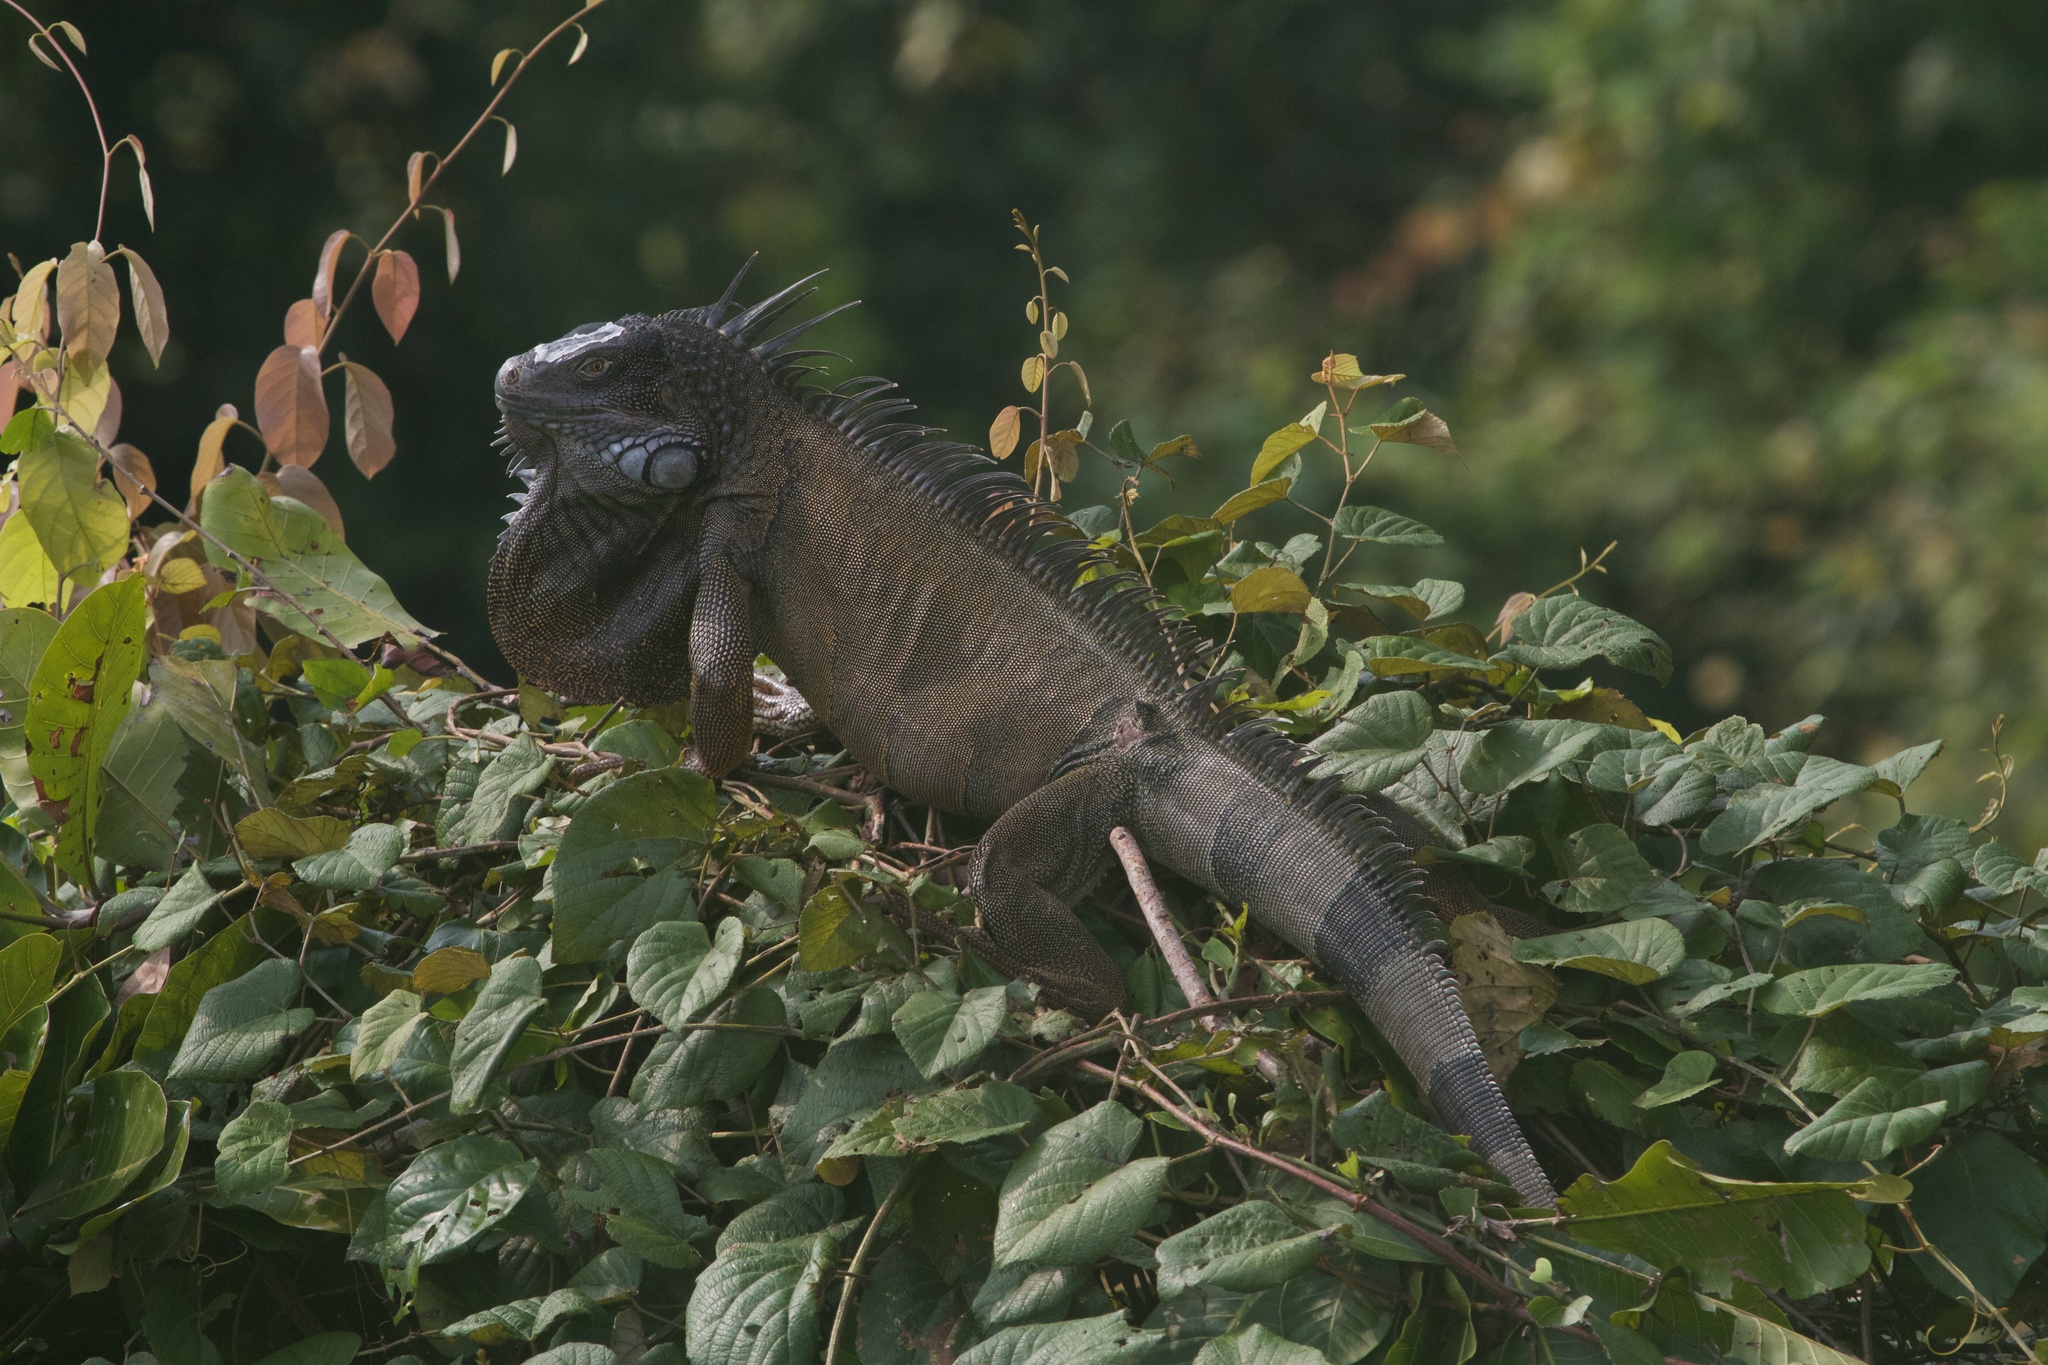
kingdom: Animalia
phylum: Chordata
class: Squamata
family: Iguanidae
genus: Iguana
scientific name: Iguana iguana
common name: Green iguana
